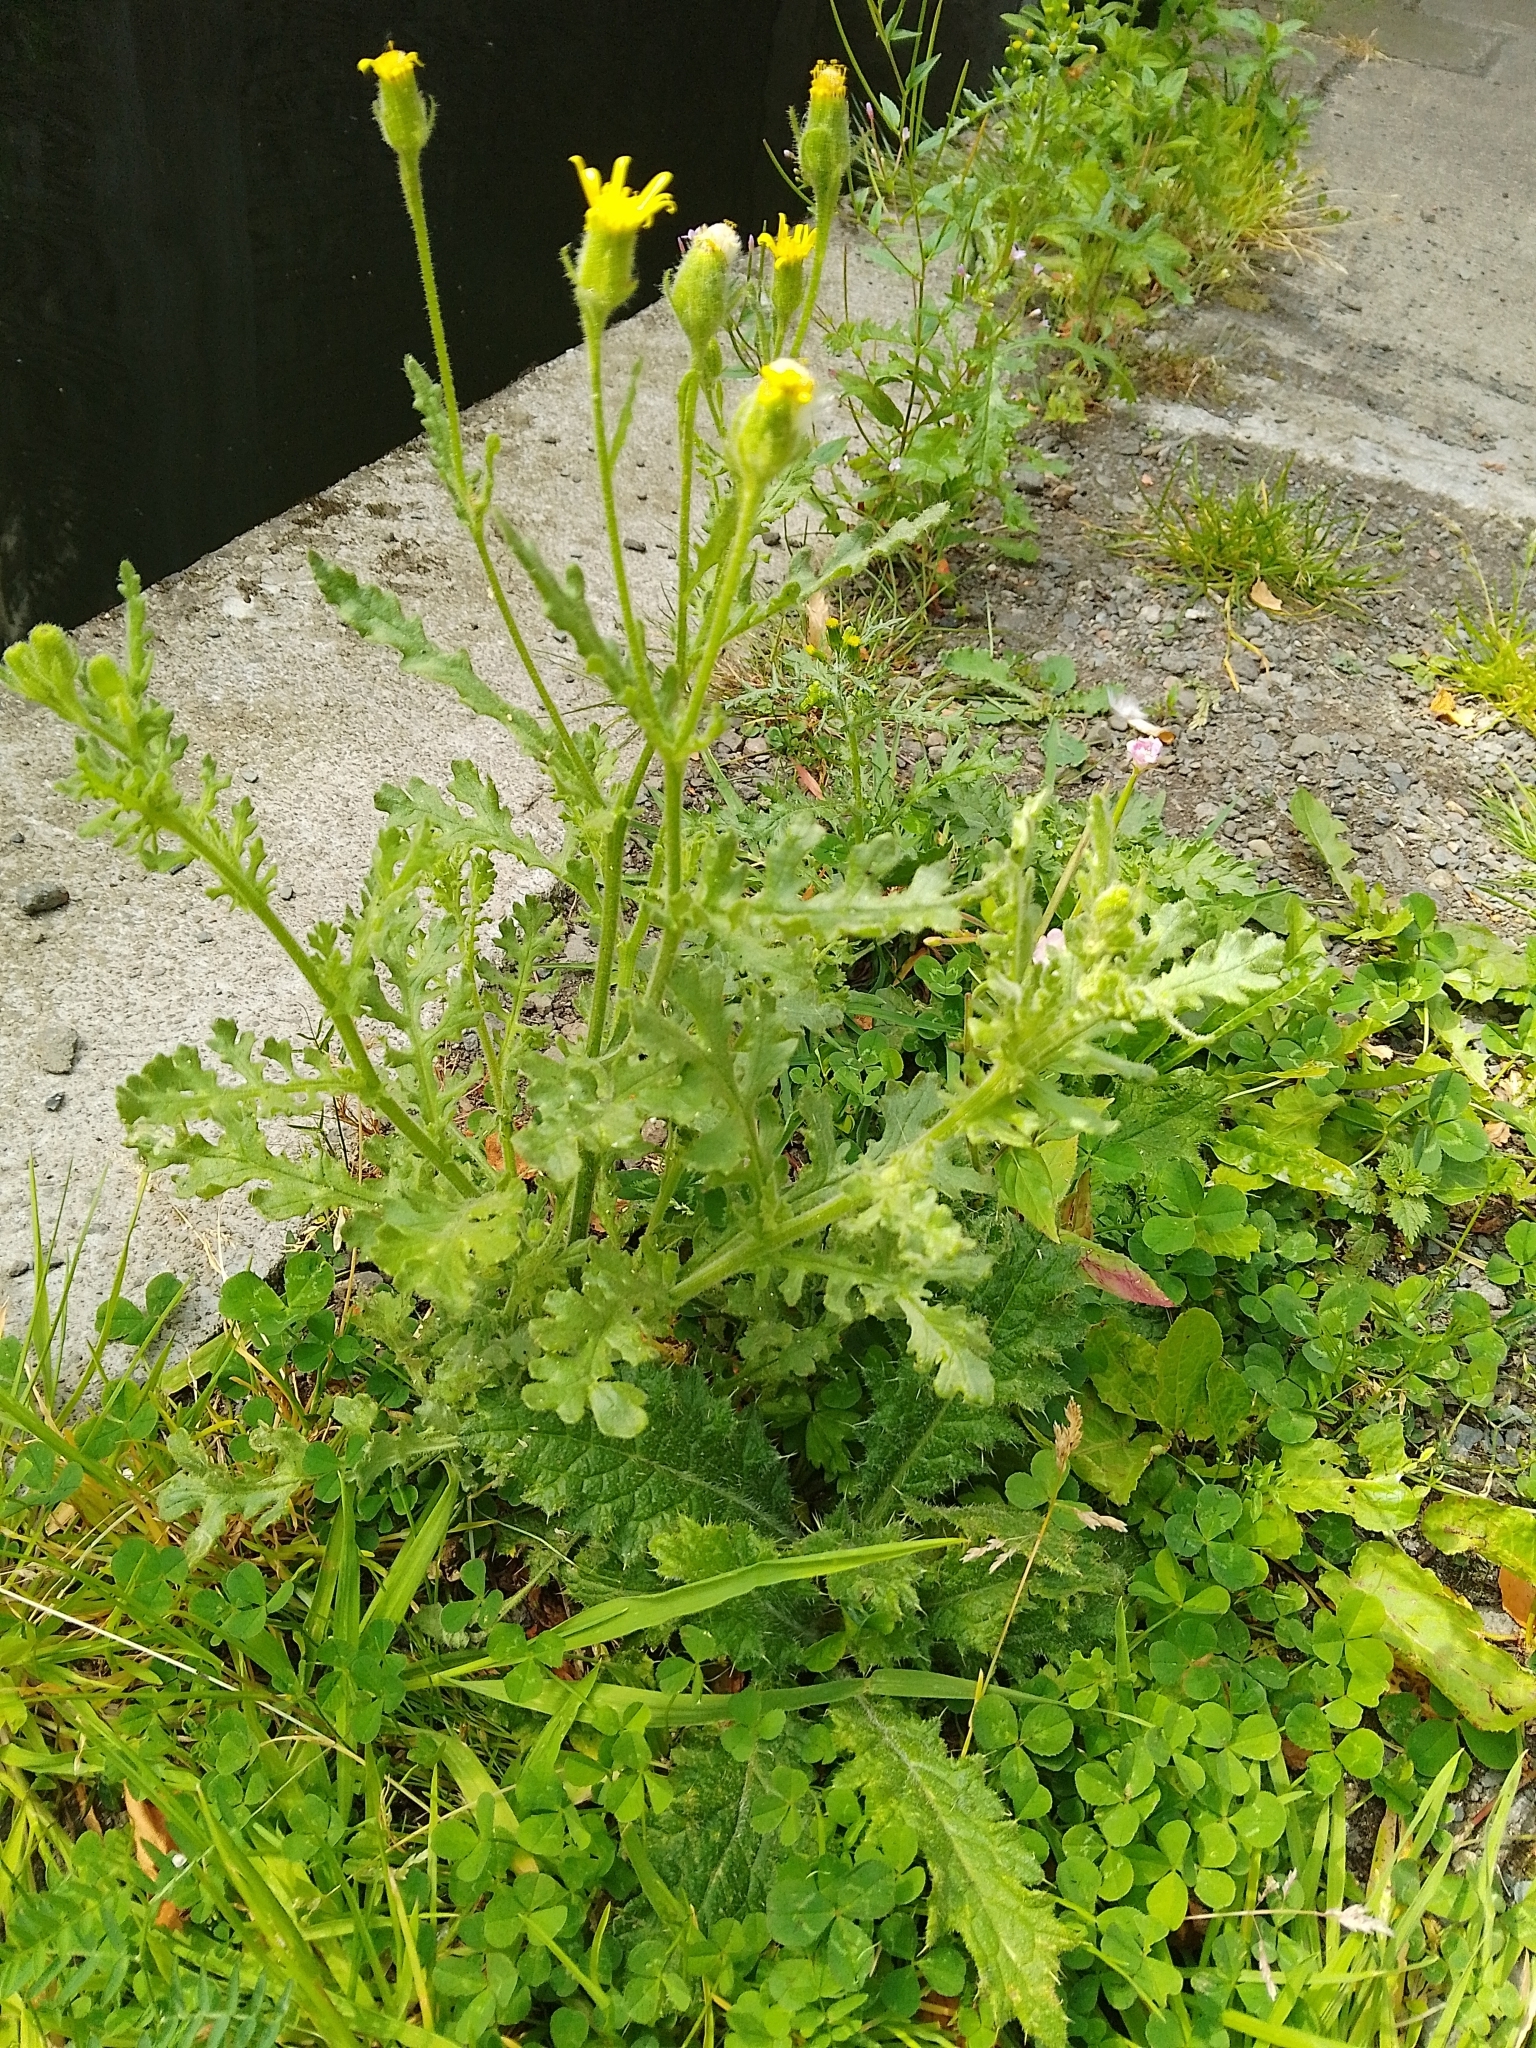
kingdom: Plantae
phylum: Tracheophyta
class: Magnoliopsida
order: Asterales
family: Asteraceae
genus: Senecio
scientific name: Senecio viscosus
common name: Sticky groundsel
